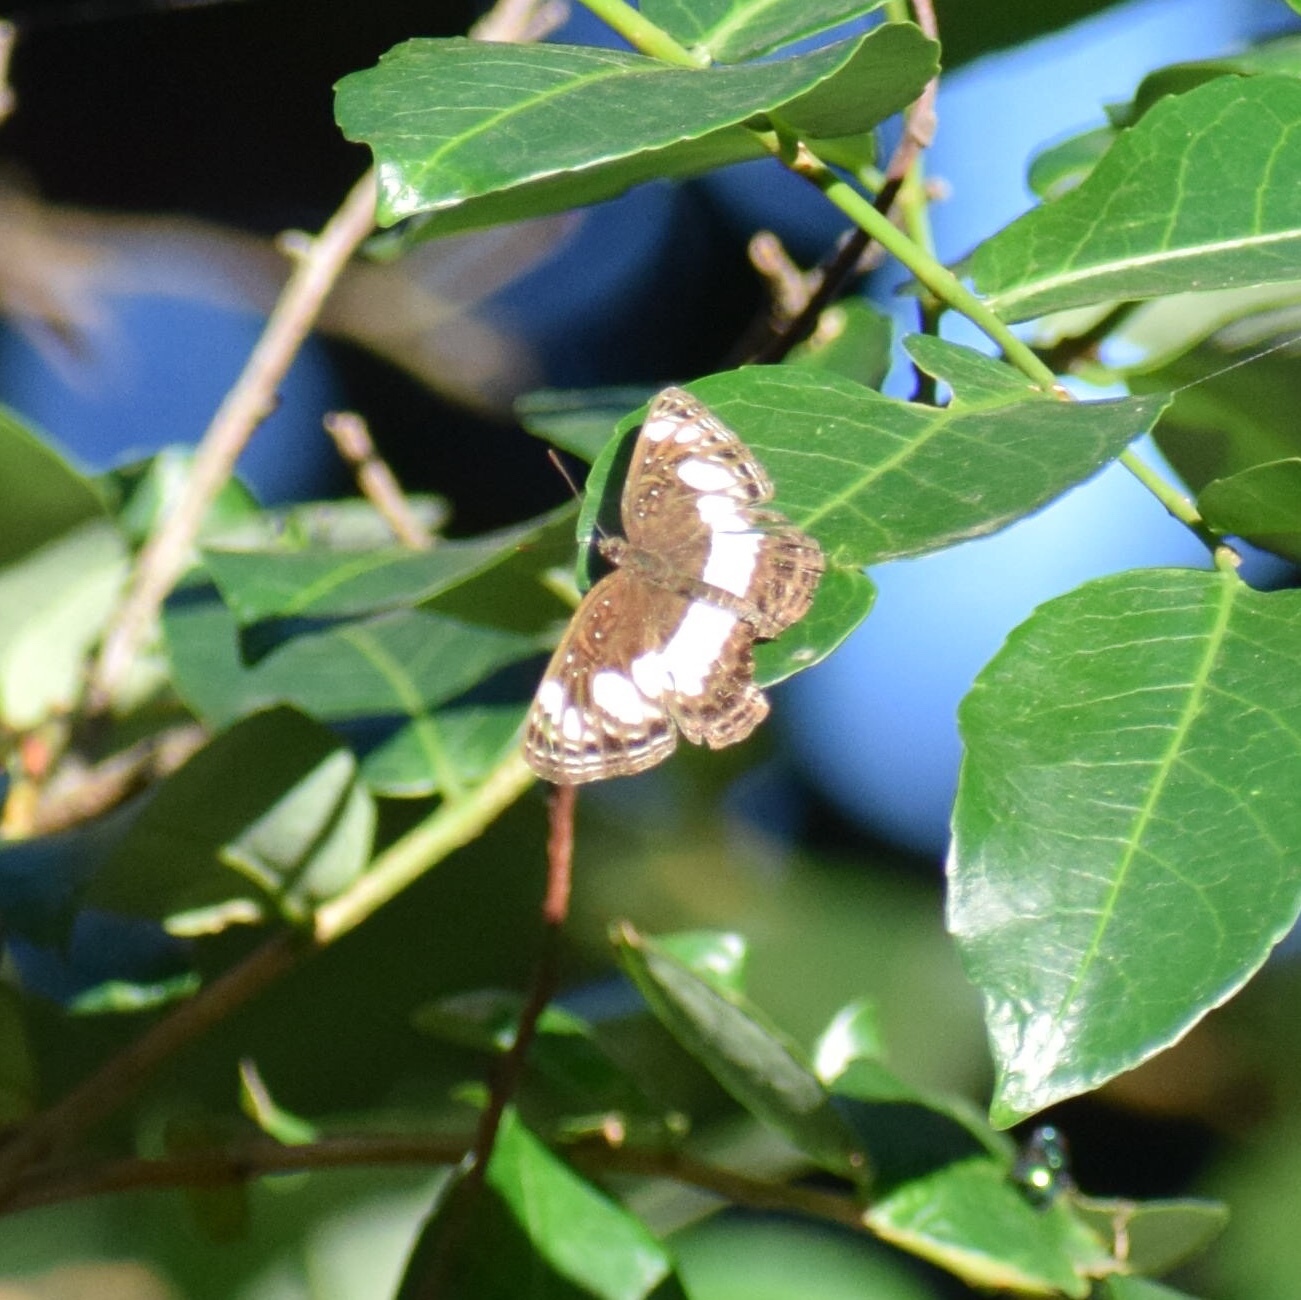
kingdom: Animalia
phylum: Arthropoda
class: Insecta
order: Lepidoptera
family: Nymphalidae
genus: Neptis
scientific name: Neptis saclava
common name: Small spotted sailor
